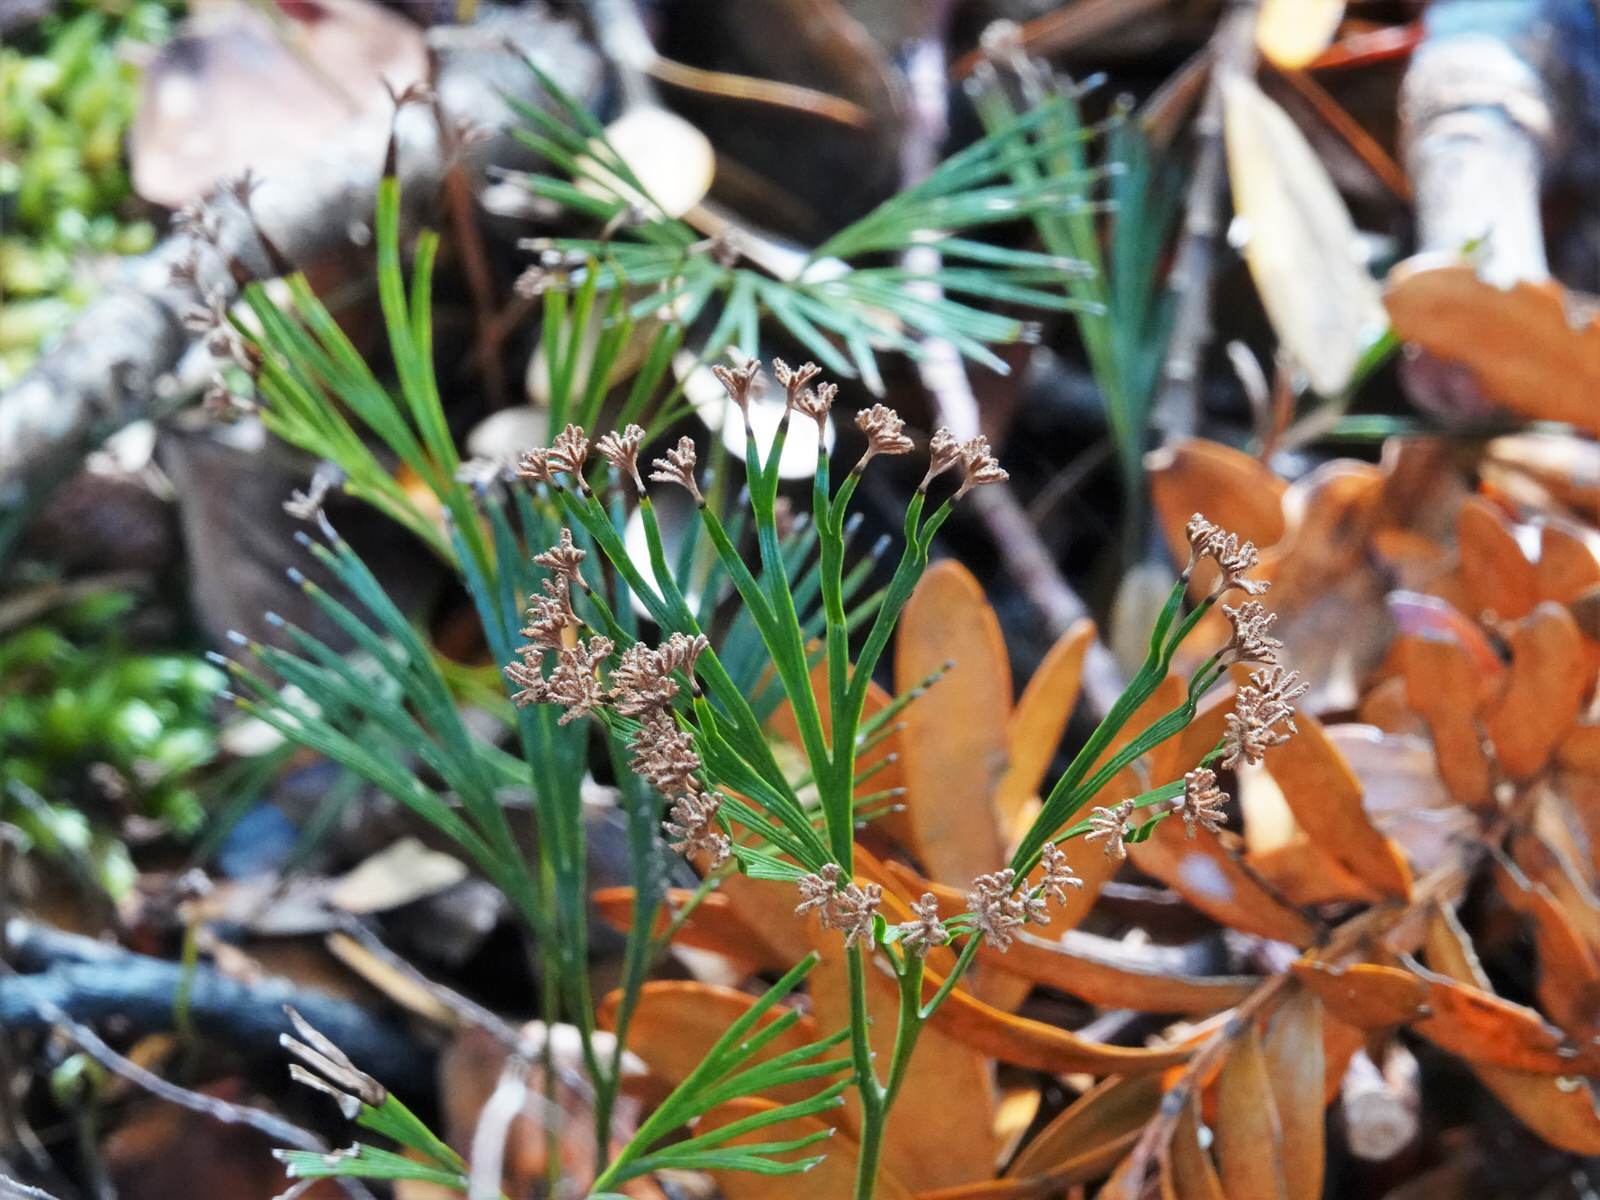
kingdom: Plantae
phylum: Tracheophyta
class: Polypodiopsida
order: Schizaeales
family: Schizaeaceae
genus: Schizaea
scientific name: Schizaea dichotoma
